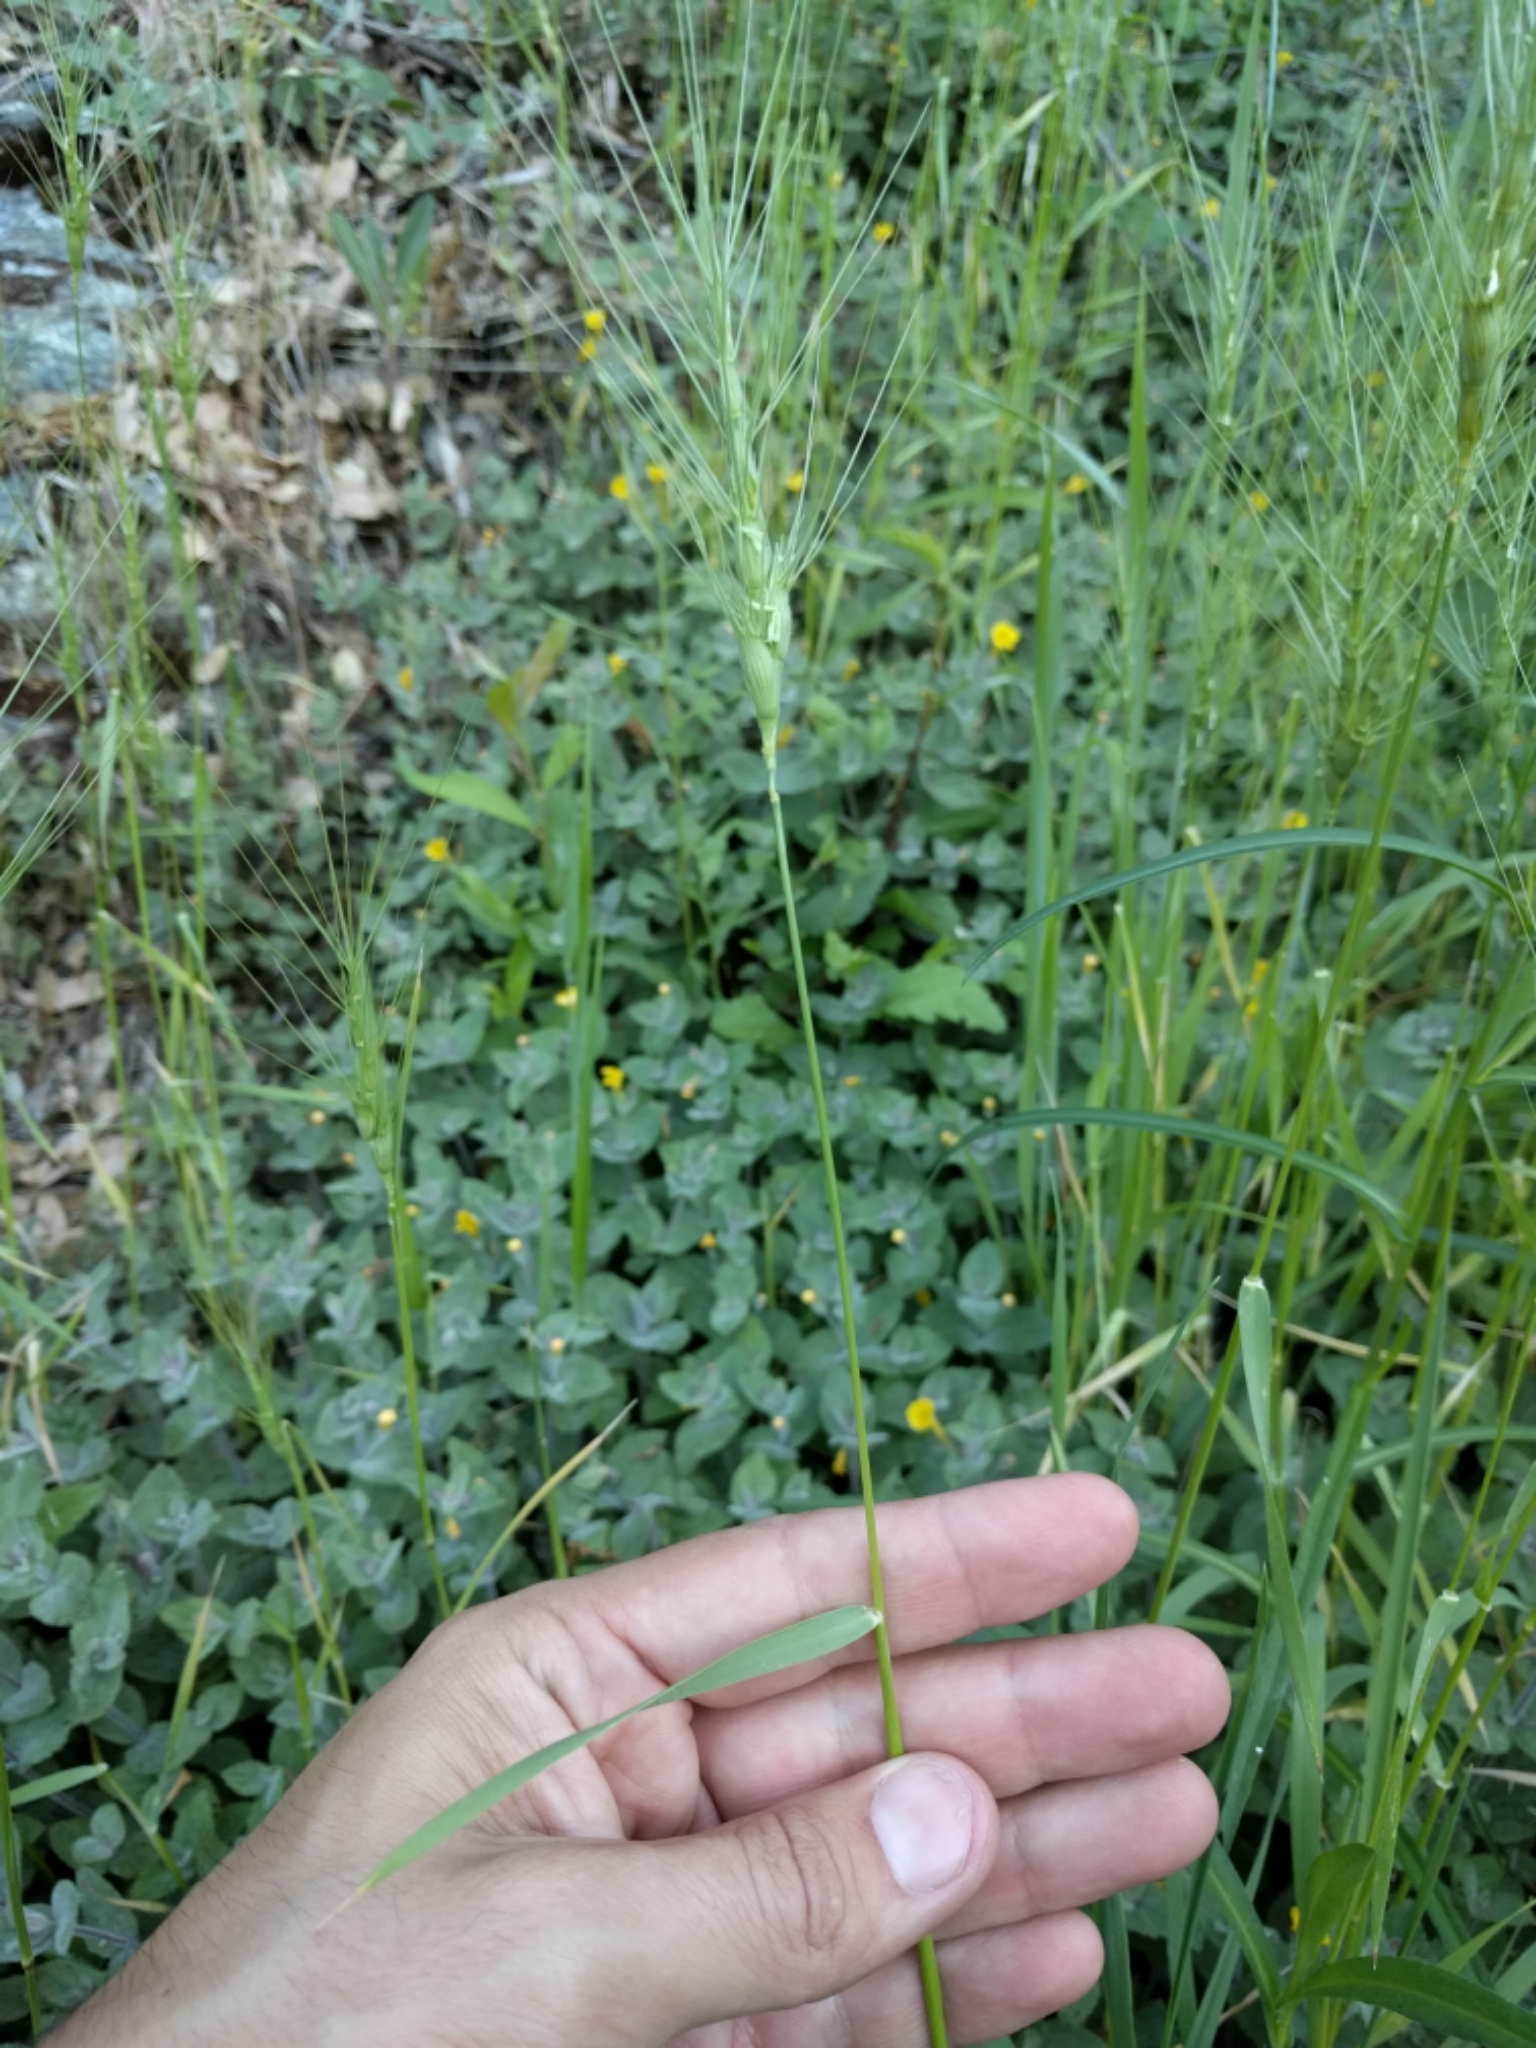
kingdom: Plantae
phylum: Tracheophyta
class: Liliopsida
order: Poales
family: Poaceae
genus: Aegilops
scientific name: Aegilops triuncialis
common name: Barb goat grass
